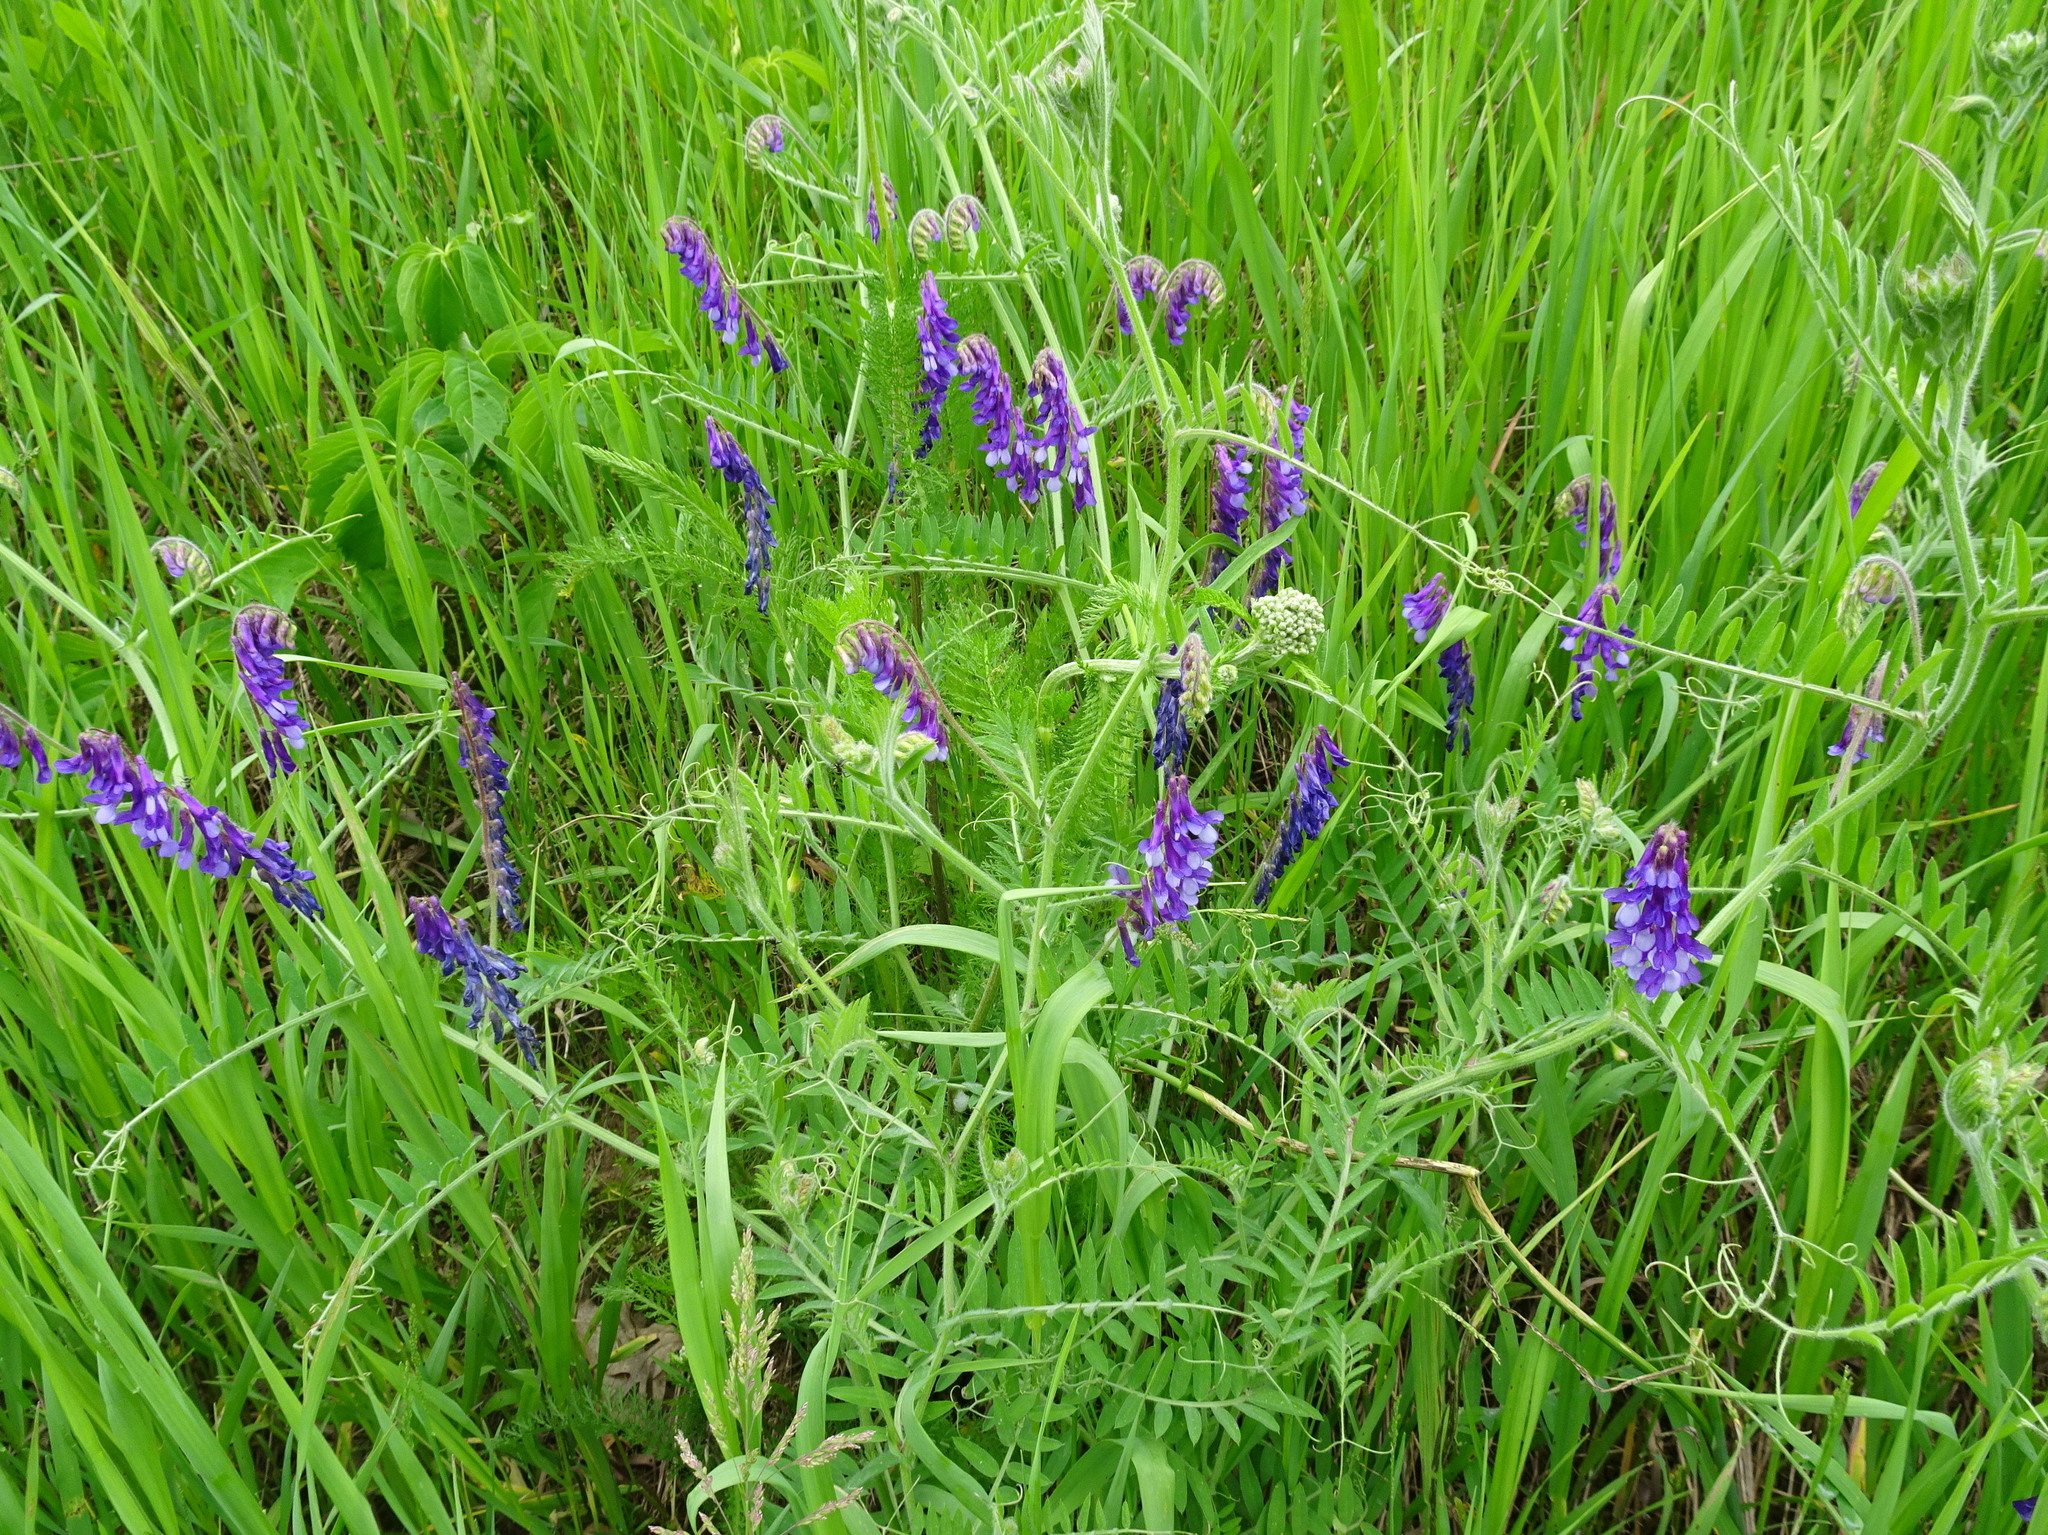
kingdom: Plantae
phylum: Tracheophyta
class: Magnoliopsida
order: Fabales
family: Fabaceae
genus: Vicia
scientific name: Vicia villosa
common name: Fodder vetch
